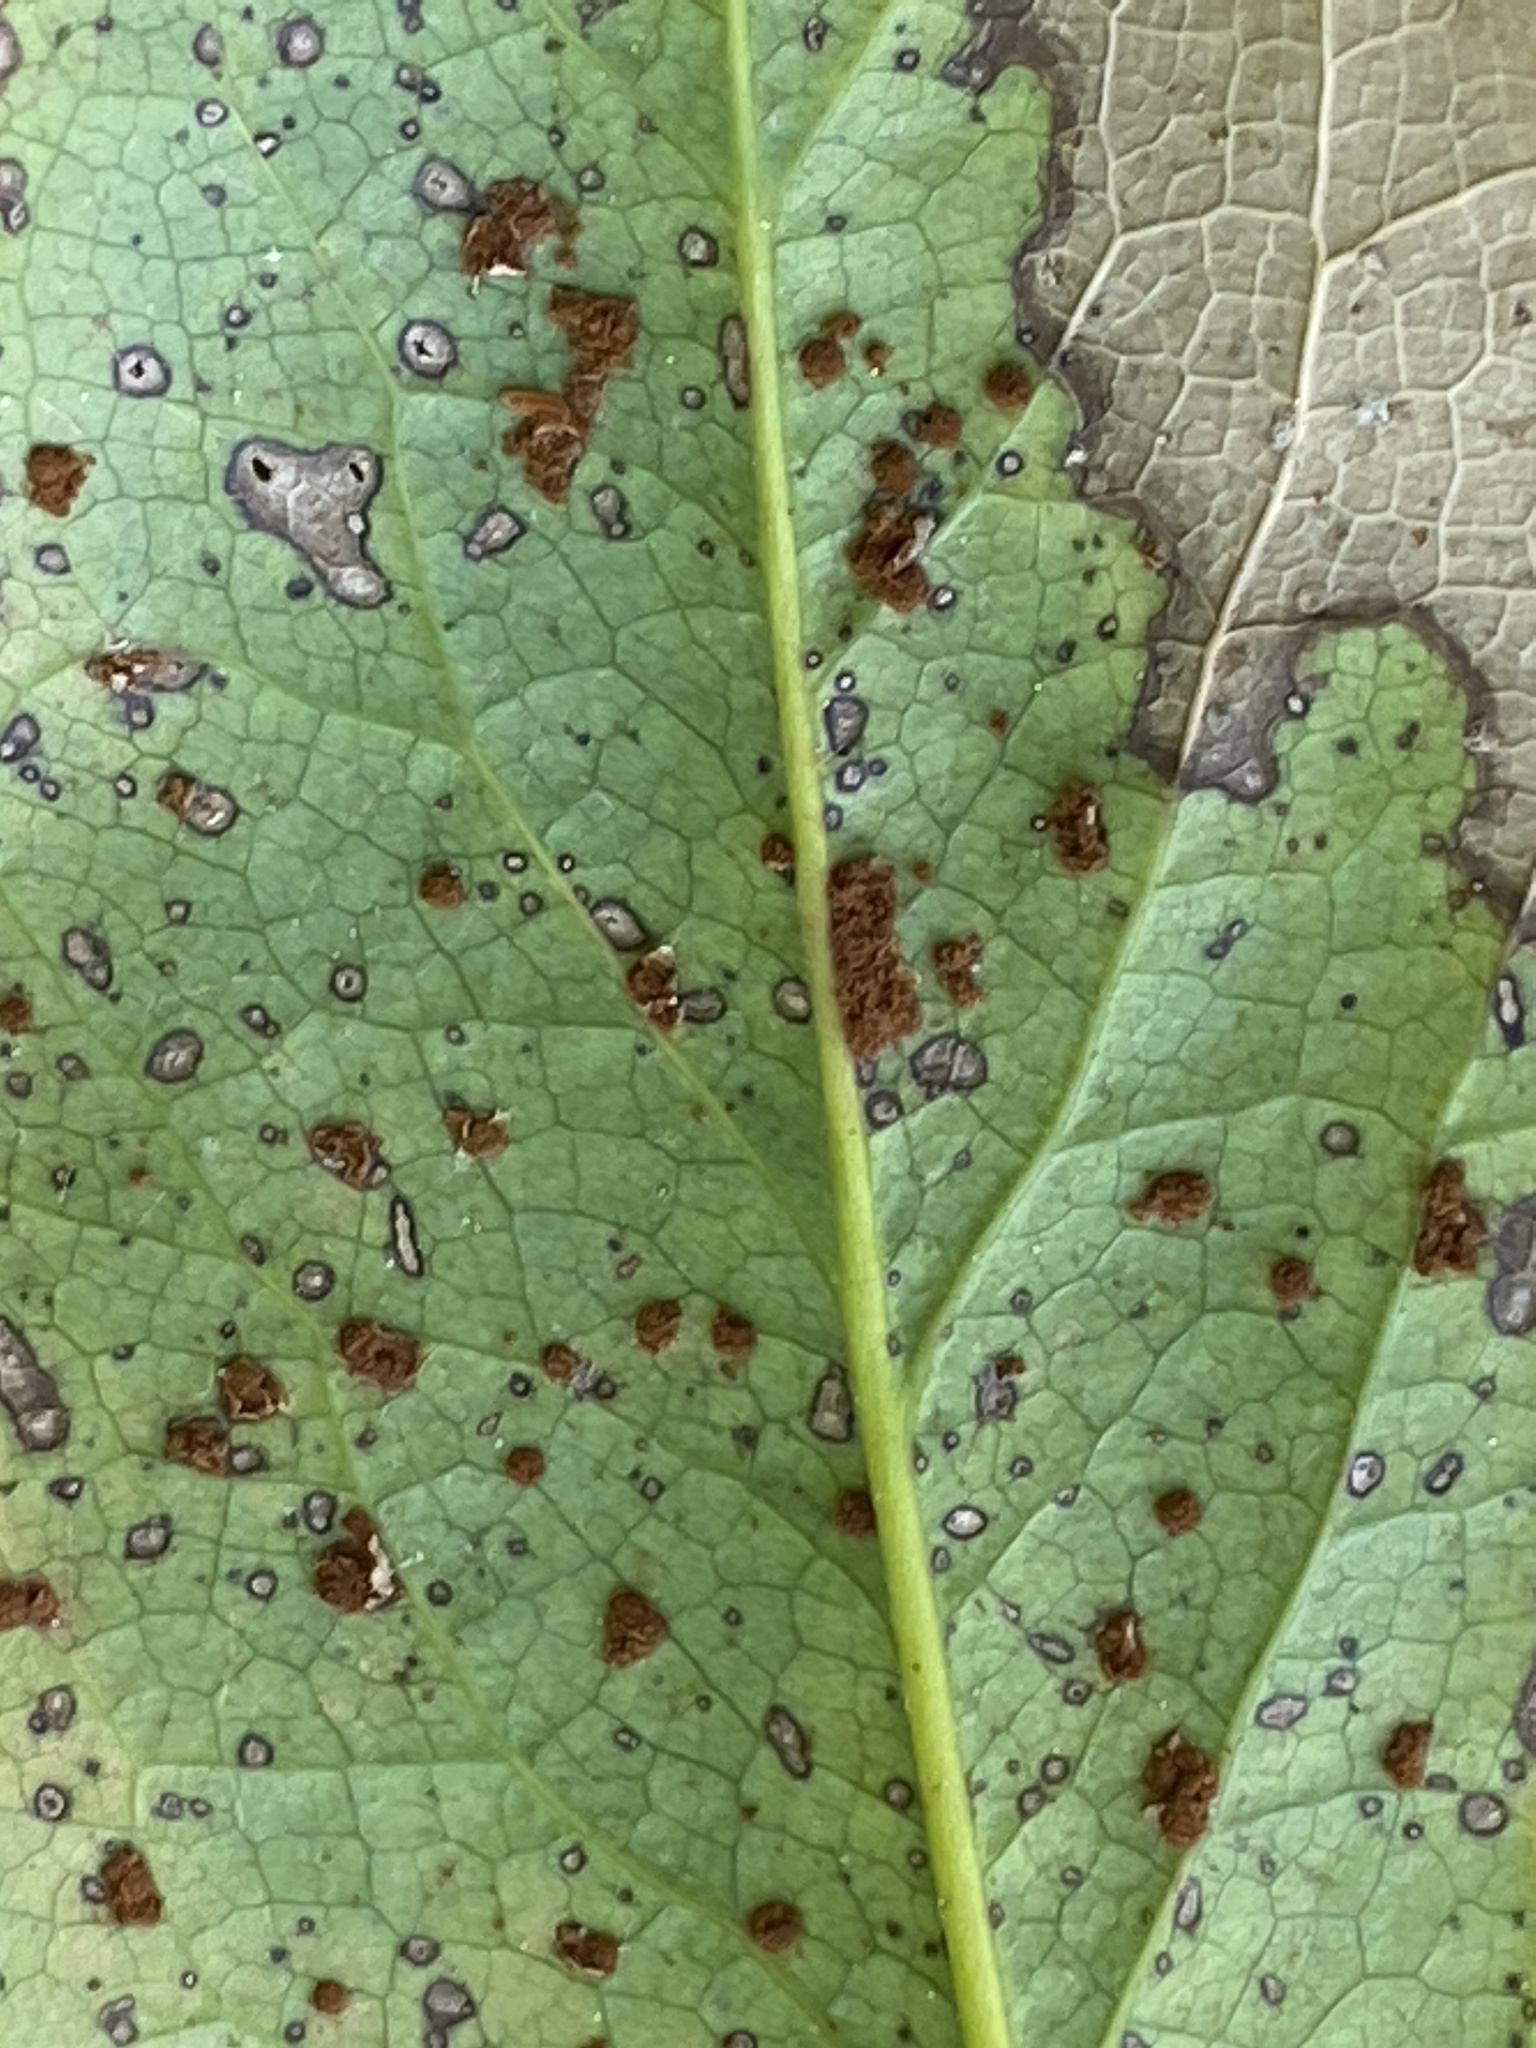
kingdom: Fungi
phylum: Basidiomycota
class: Pucciniomycetes
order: Pucciniales
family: Pucciniaceae
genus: Cumminsiella
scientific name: Cumminsiella mirabilissima
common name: Mahonia rust
